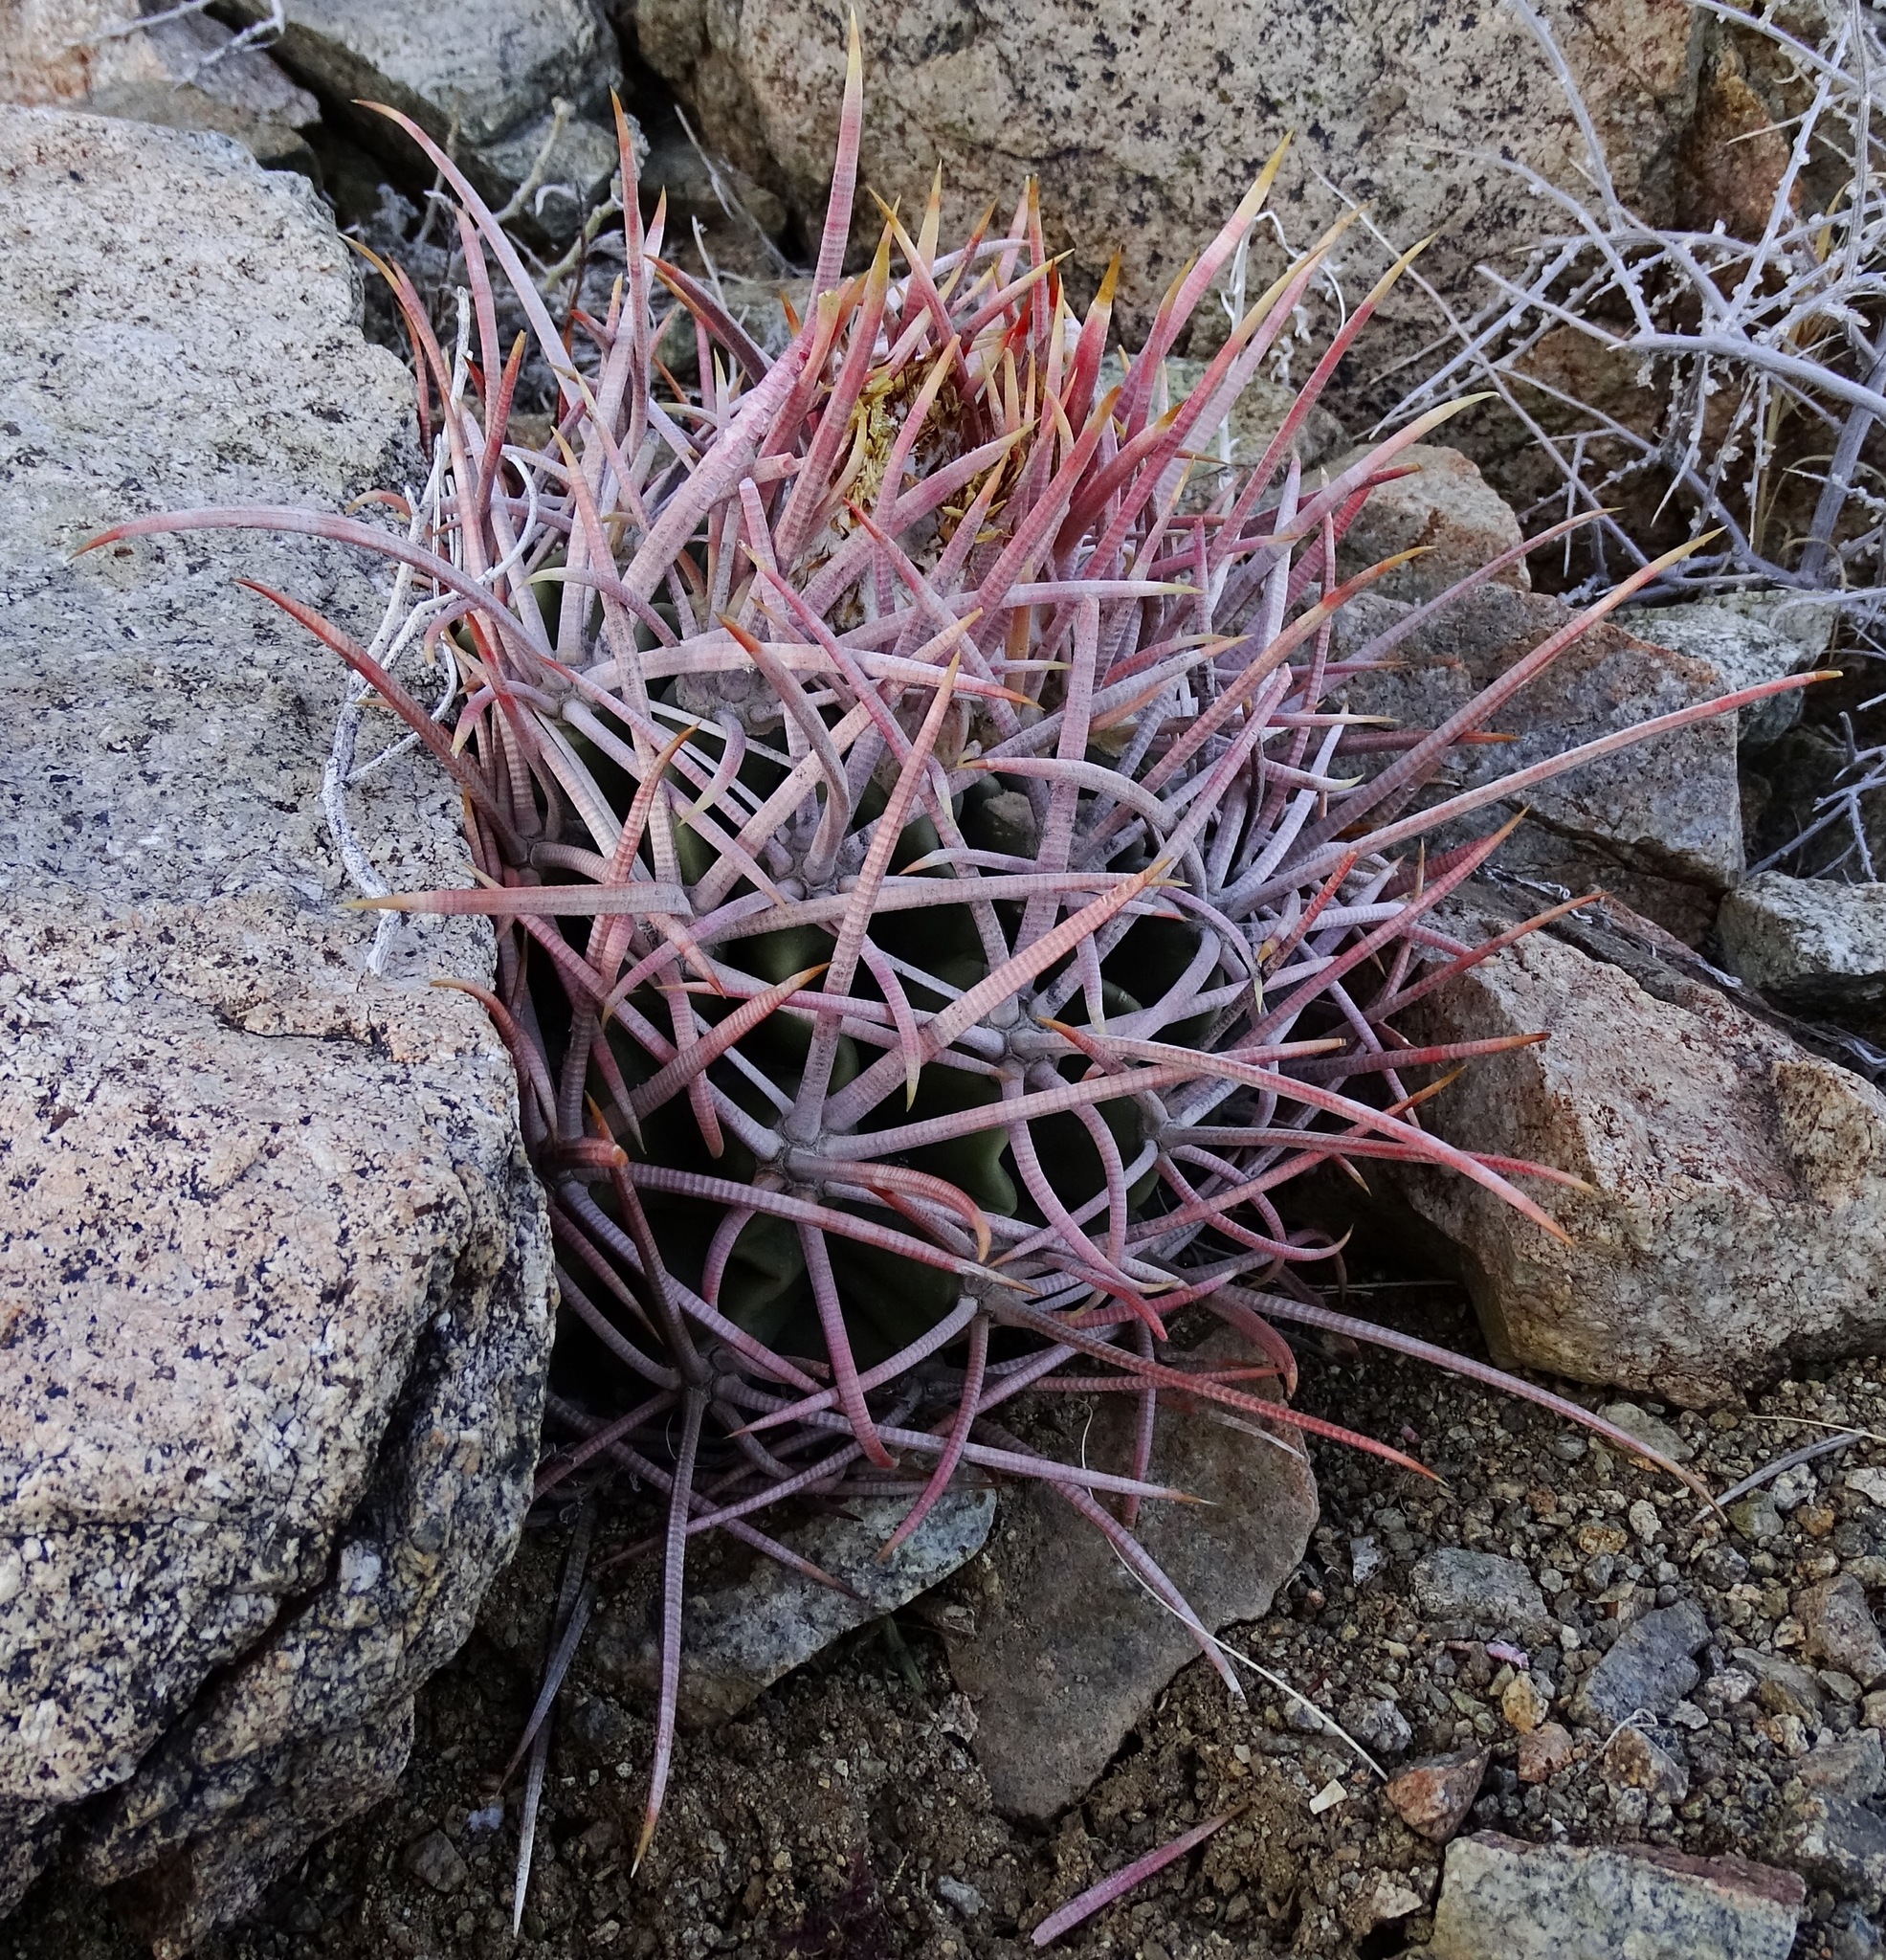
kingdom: Plantae
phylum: Tracheophyta
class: Magnoliopsida
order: Caryophyllales
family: Cactaceae
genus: Echinocactus
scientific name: Echinocactus polycephalus
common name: Cottontop cactus
